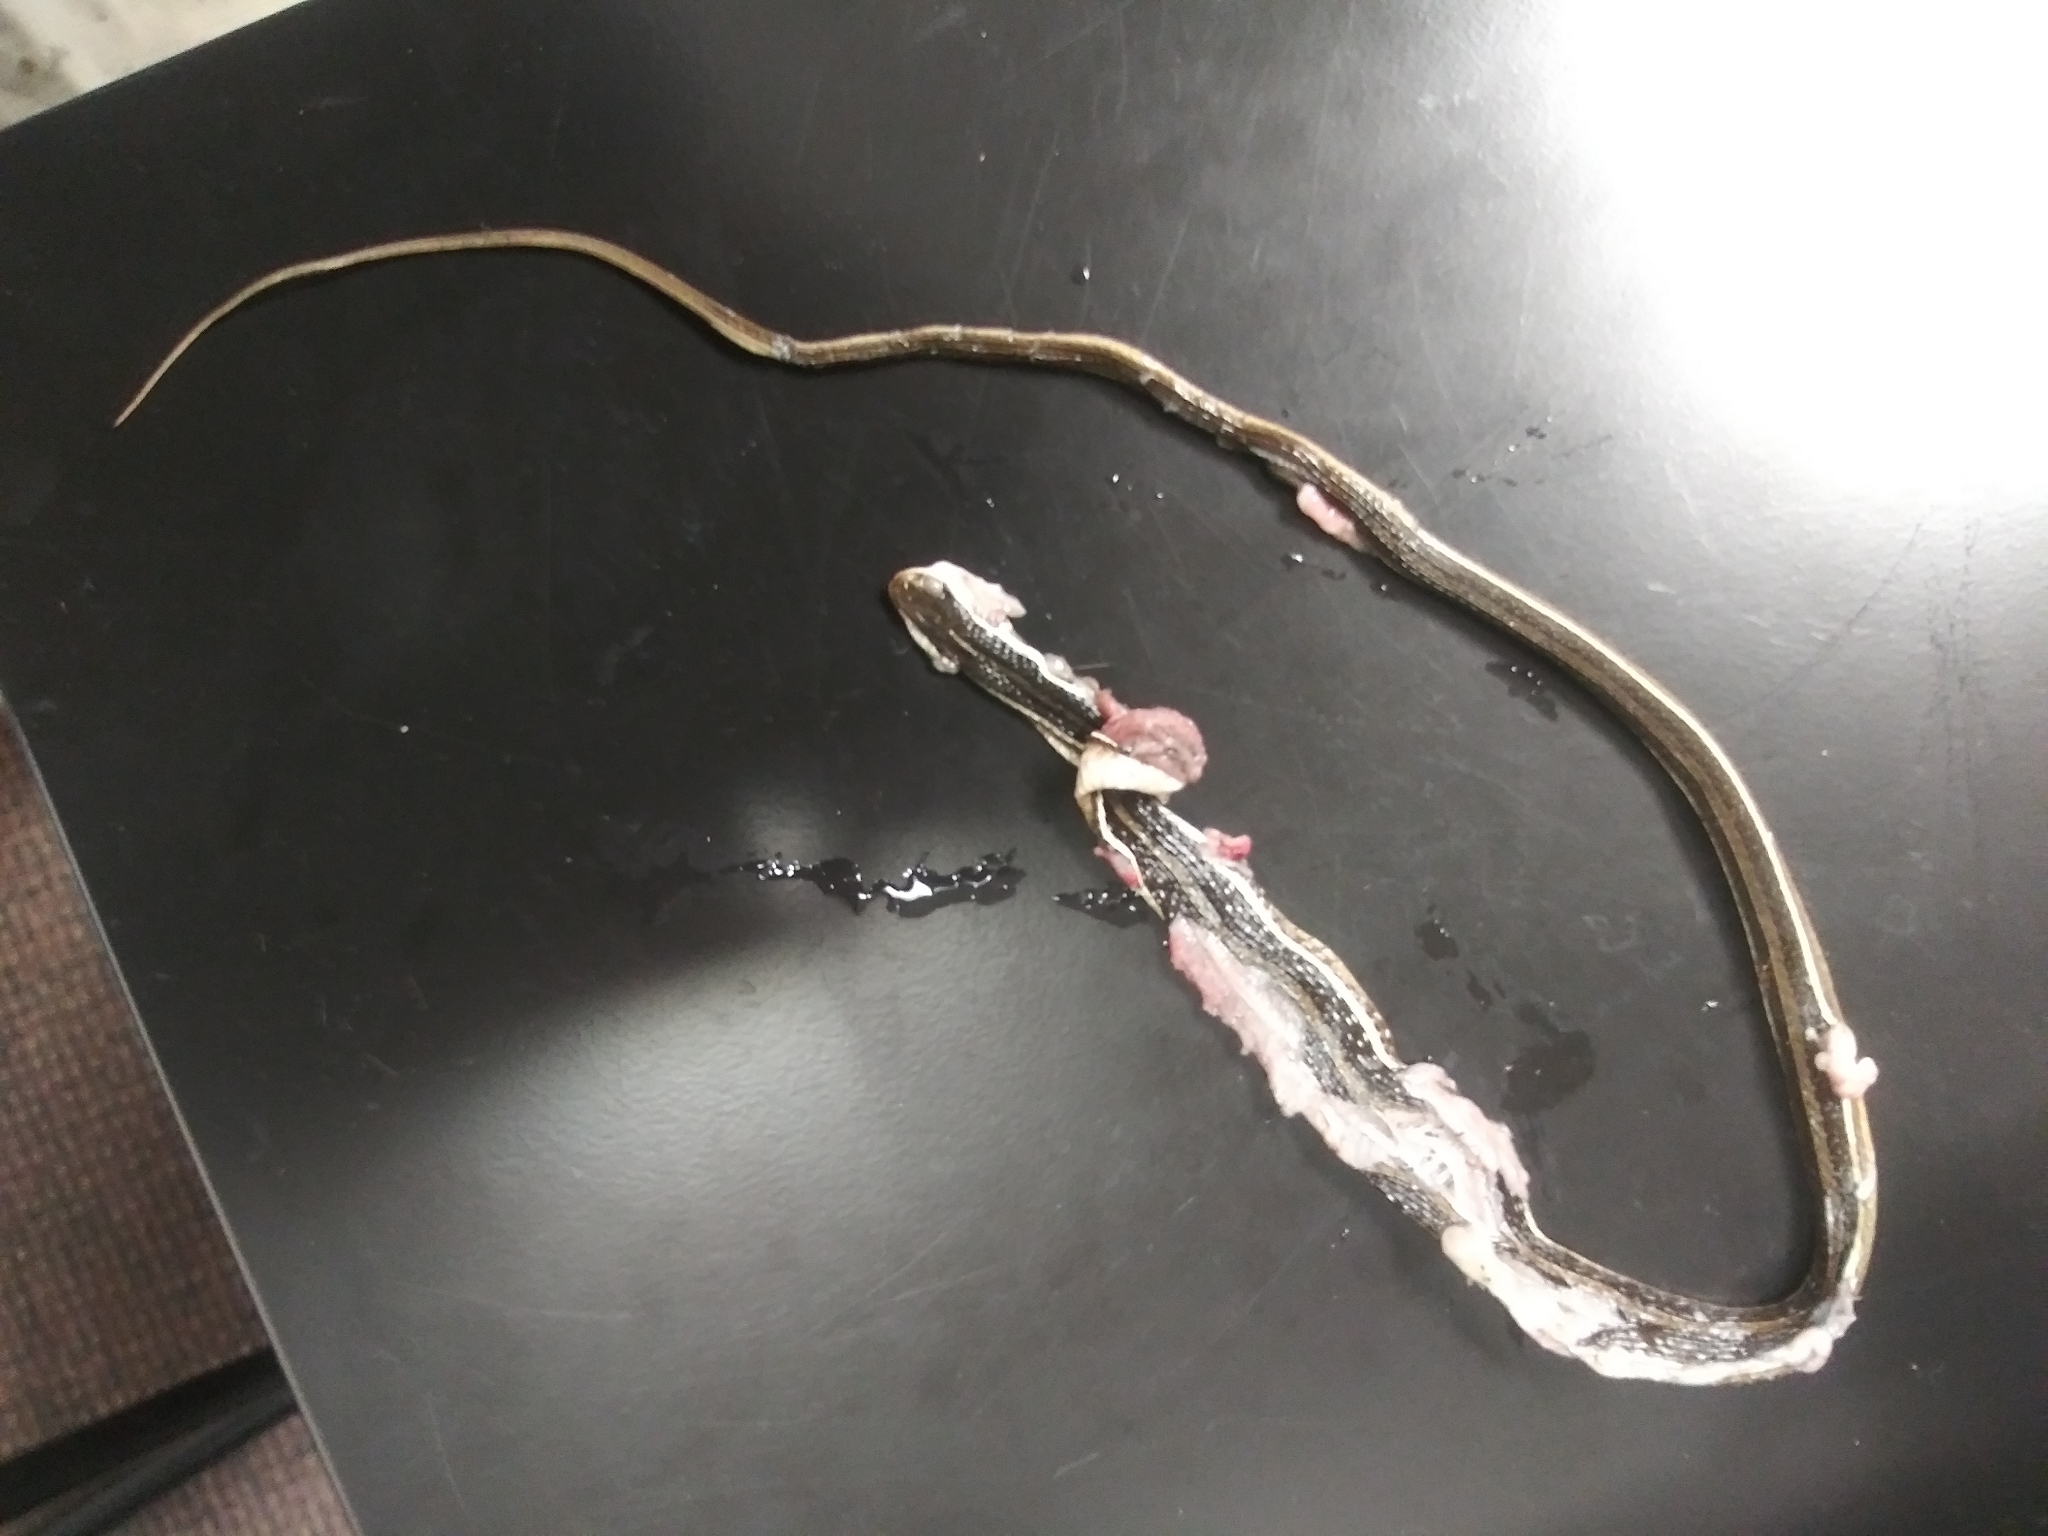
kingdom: Animalia
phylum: Chordata
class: Squamata
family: Colubridae
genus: Thamnophis
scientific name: Thamnophis saurita
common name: Eastern ribbonsnake
